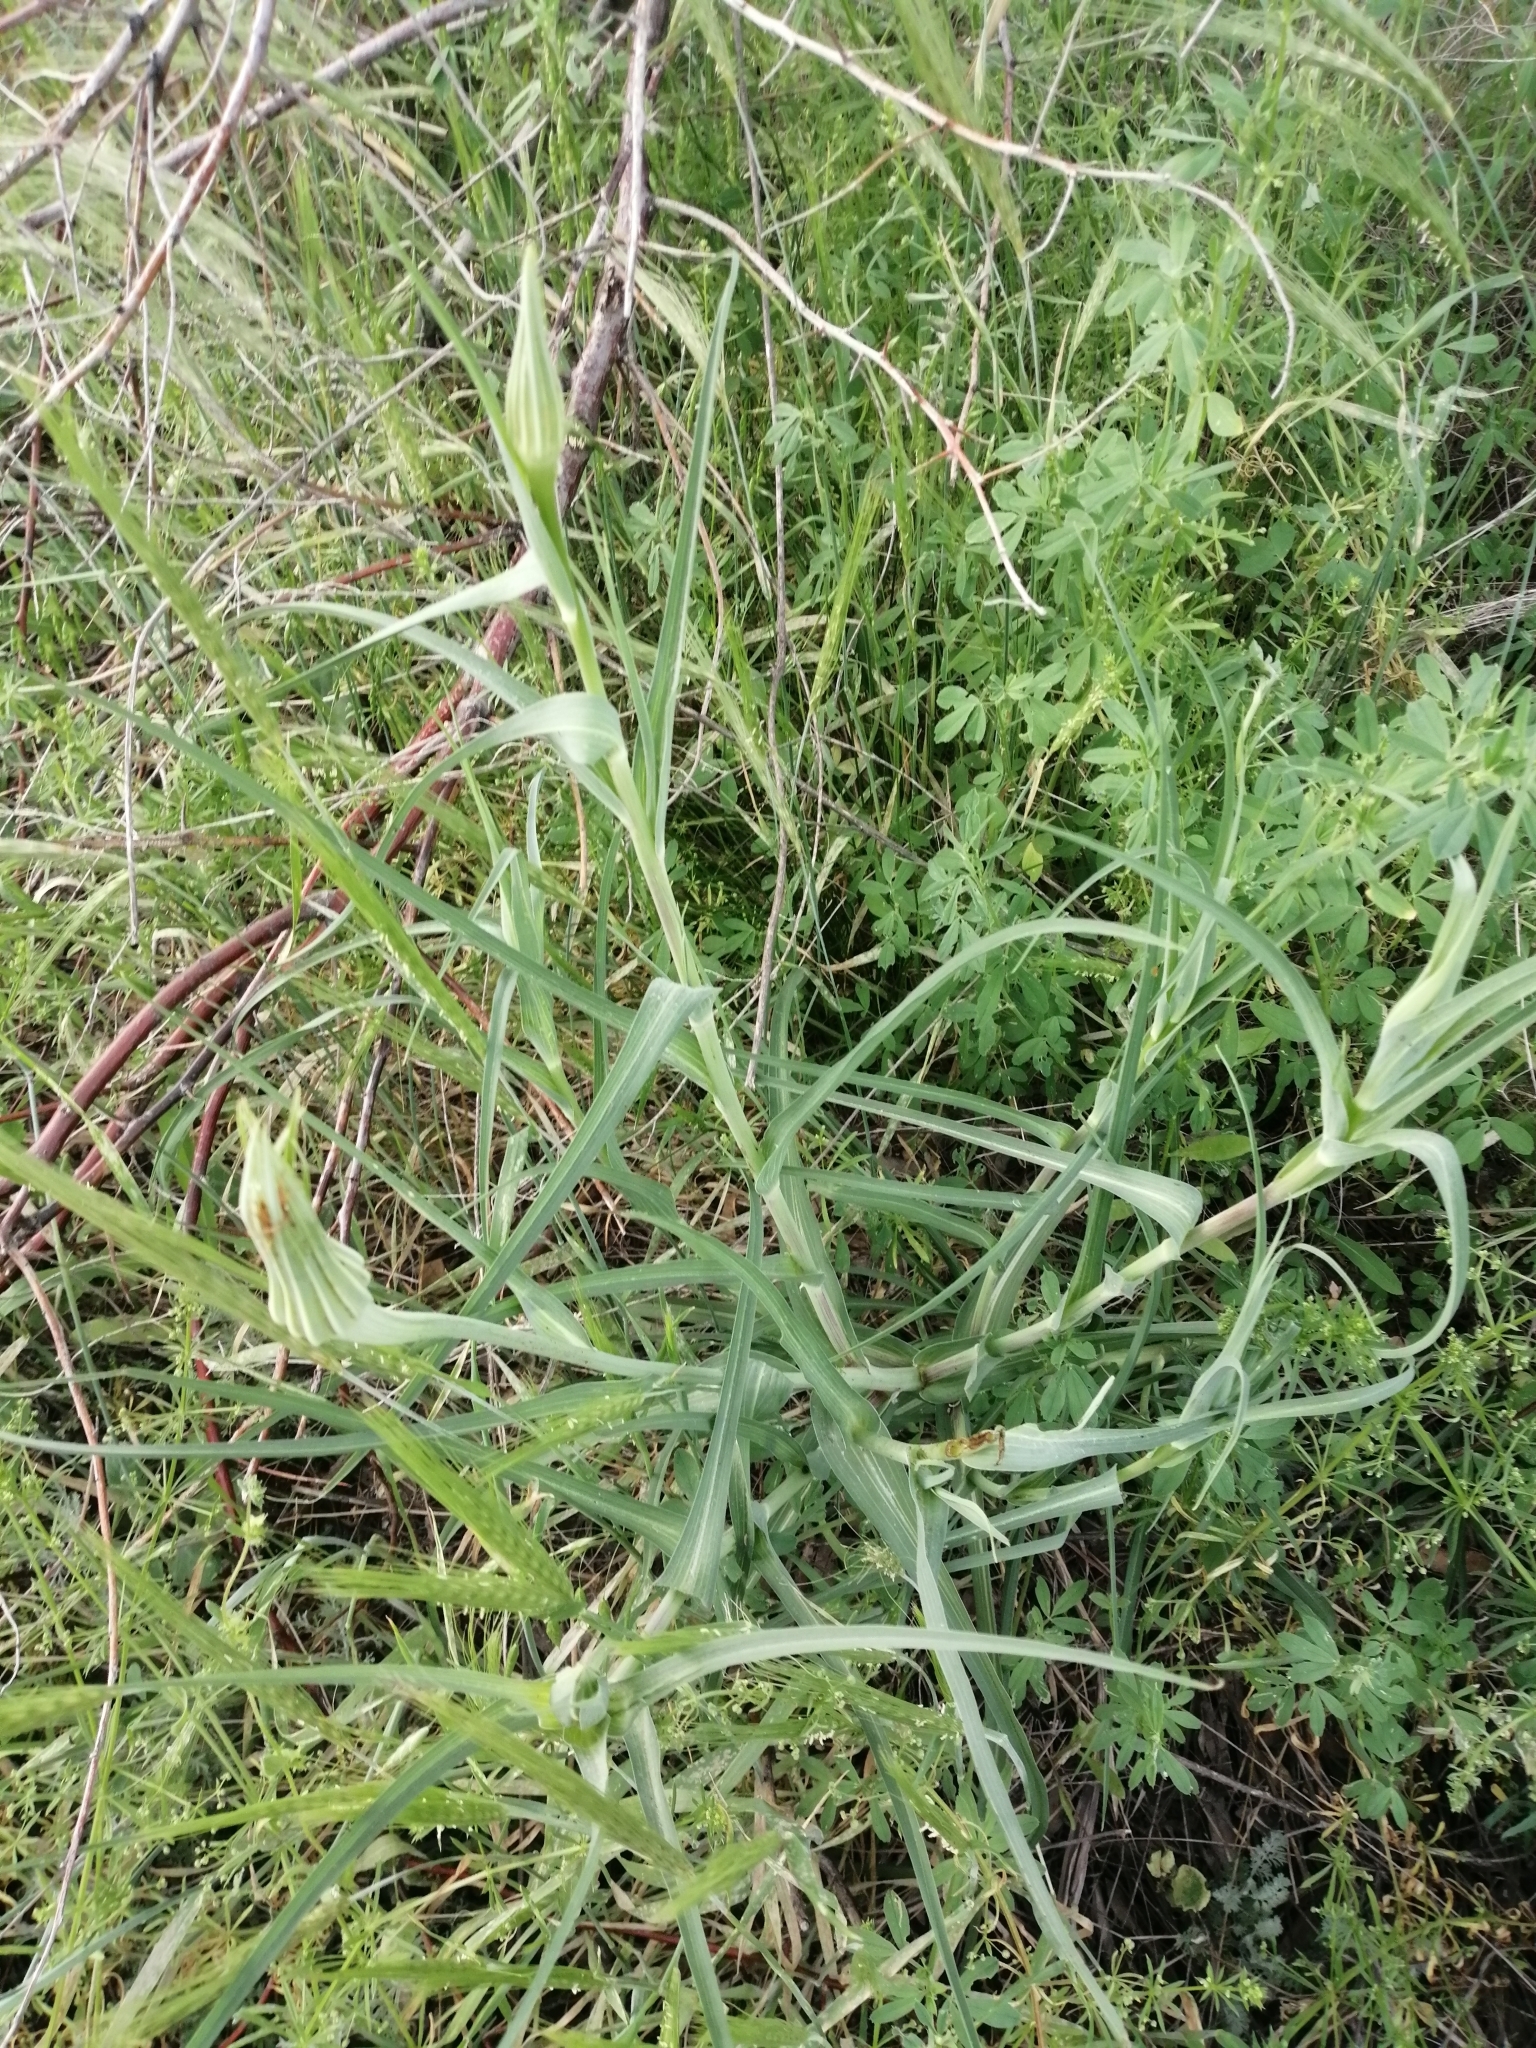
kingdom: Plantae
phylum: Tracheophyta
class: Magnoliopsida
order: Asterales
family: Asteraceae
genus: Tragopogon
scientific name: Tragopogon dubius
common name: Yellow salsify
